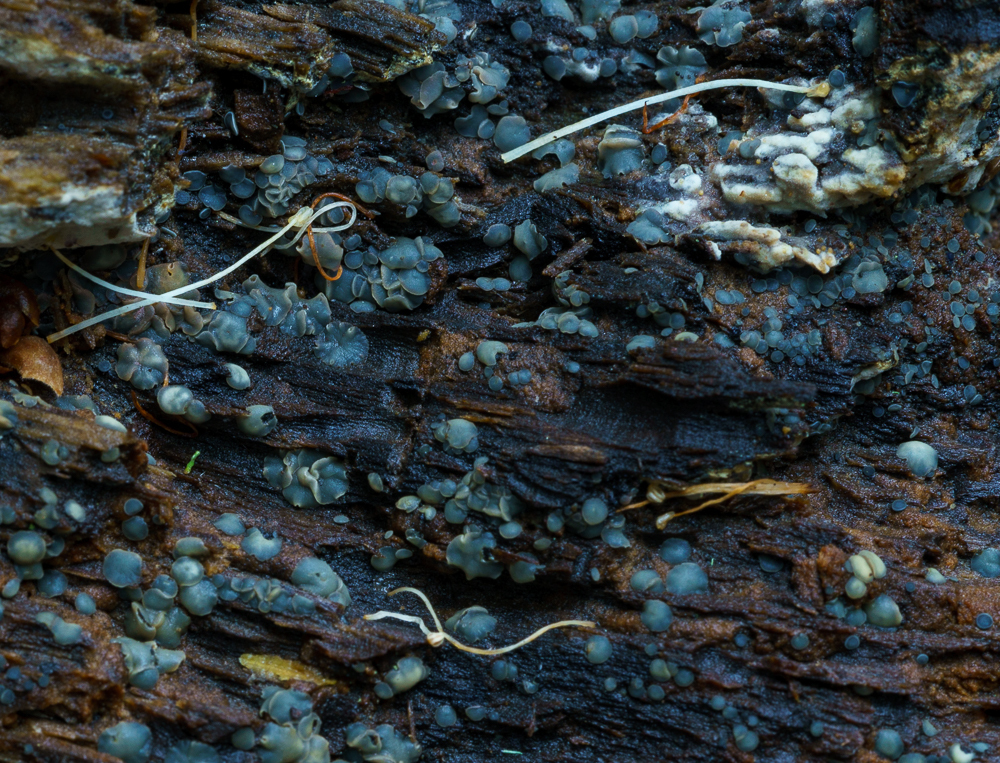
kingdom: Fungi
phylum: Ascomycota
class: Leotiomycetes
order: Helotiales
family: Mollisiaceae
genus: Mollisia
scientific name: Mollisia cinerea
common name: Common grey disco
